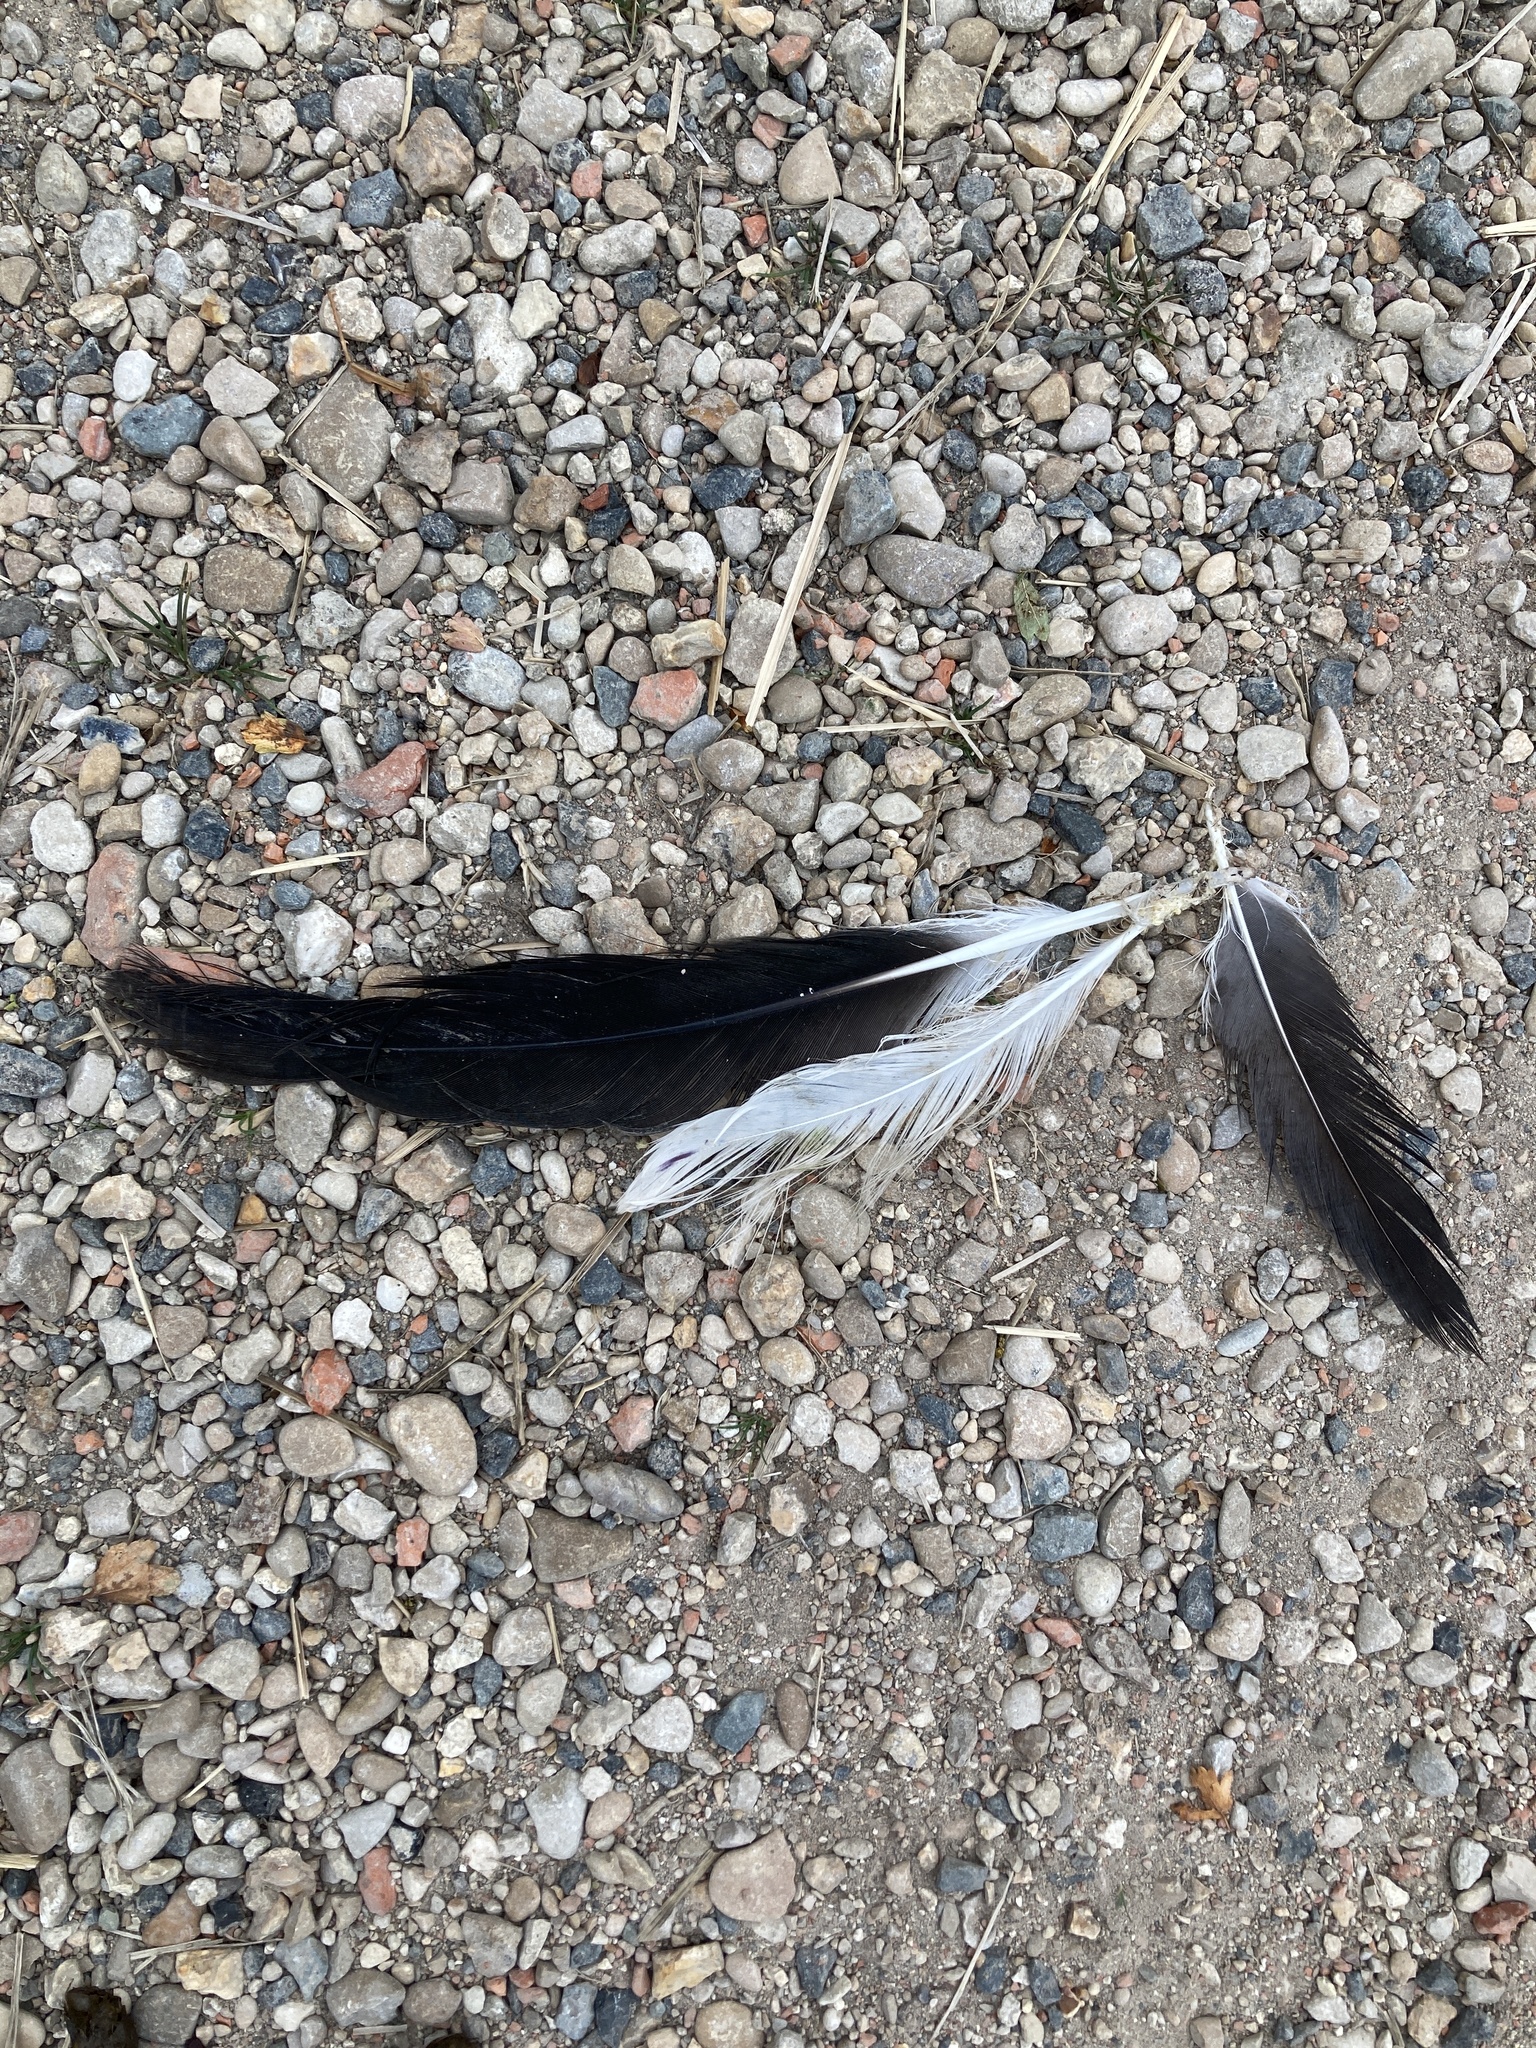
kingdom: Animalia
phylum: Chordata
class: Aves
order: Ciconiiformes
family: Ciconiidae
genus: Ciconia
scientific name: Ciconia ciconia
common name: White stork
